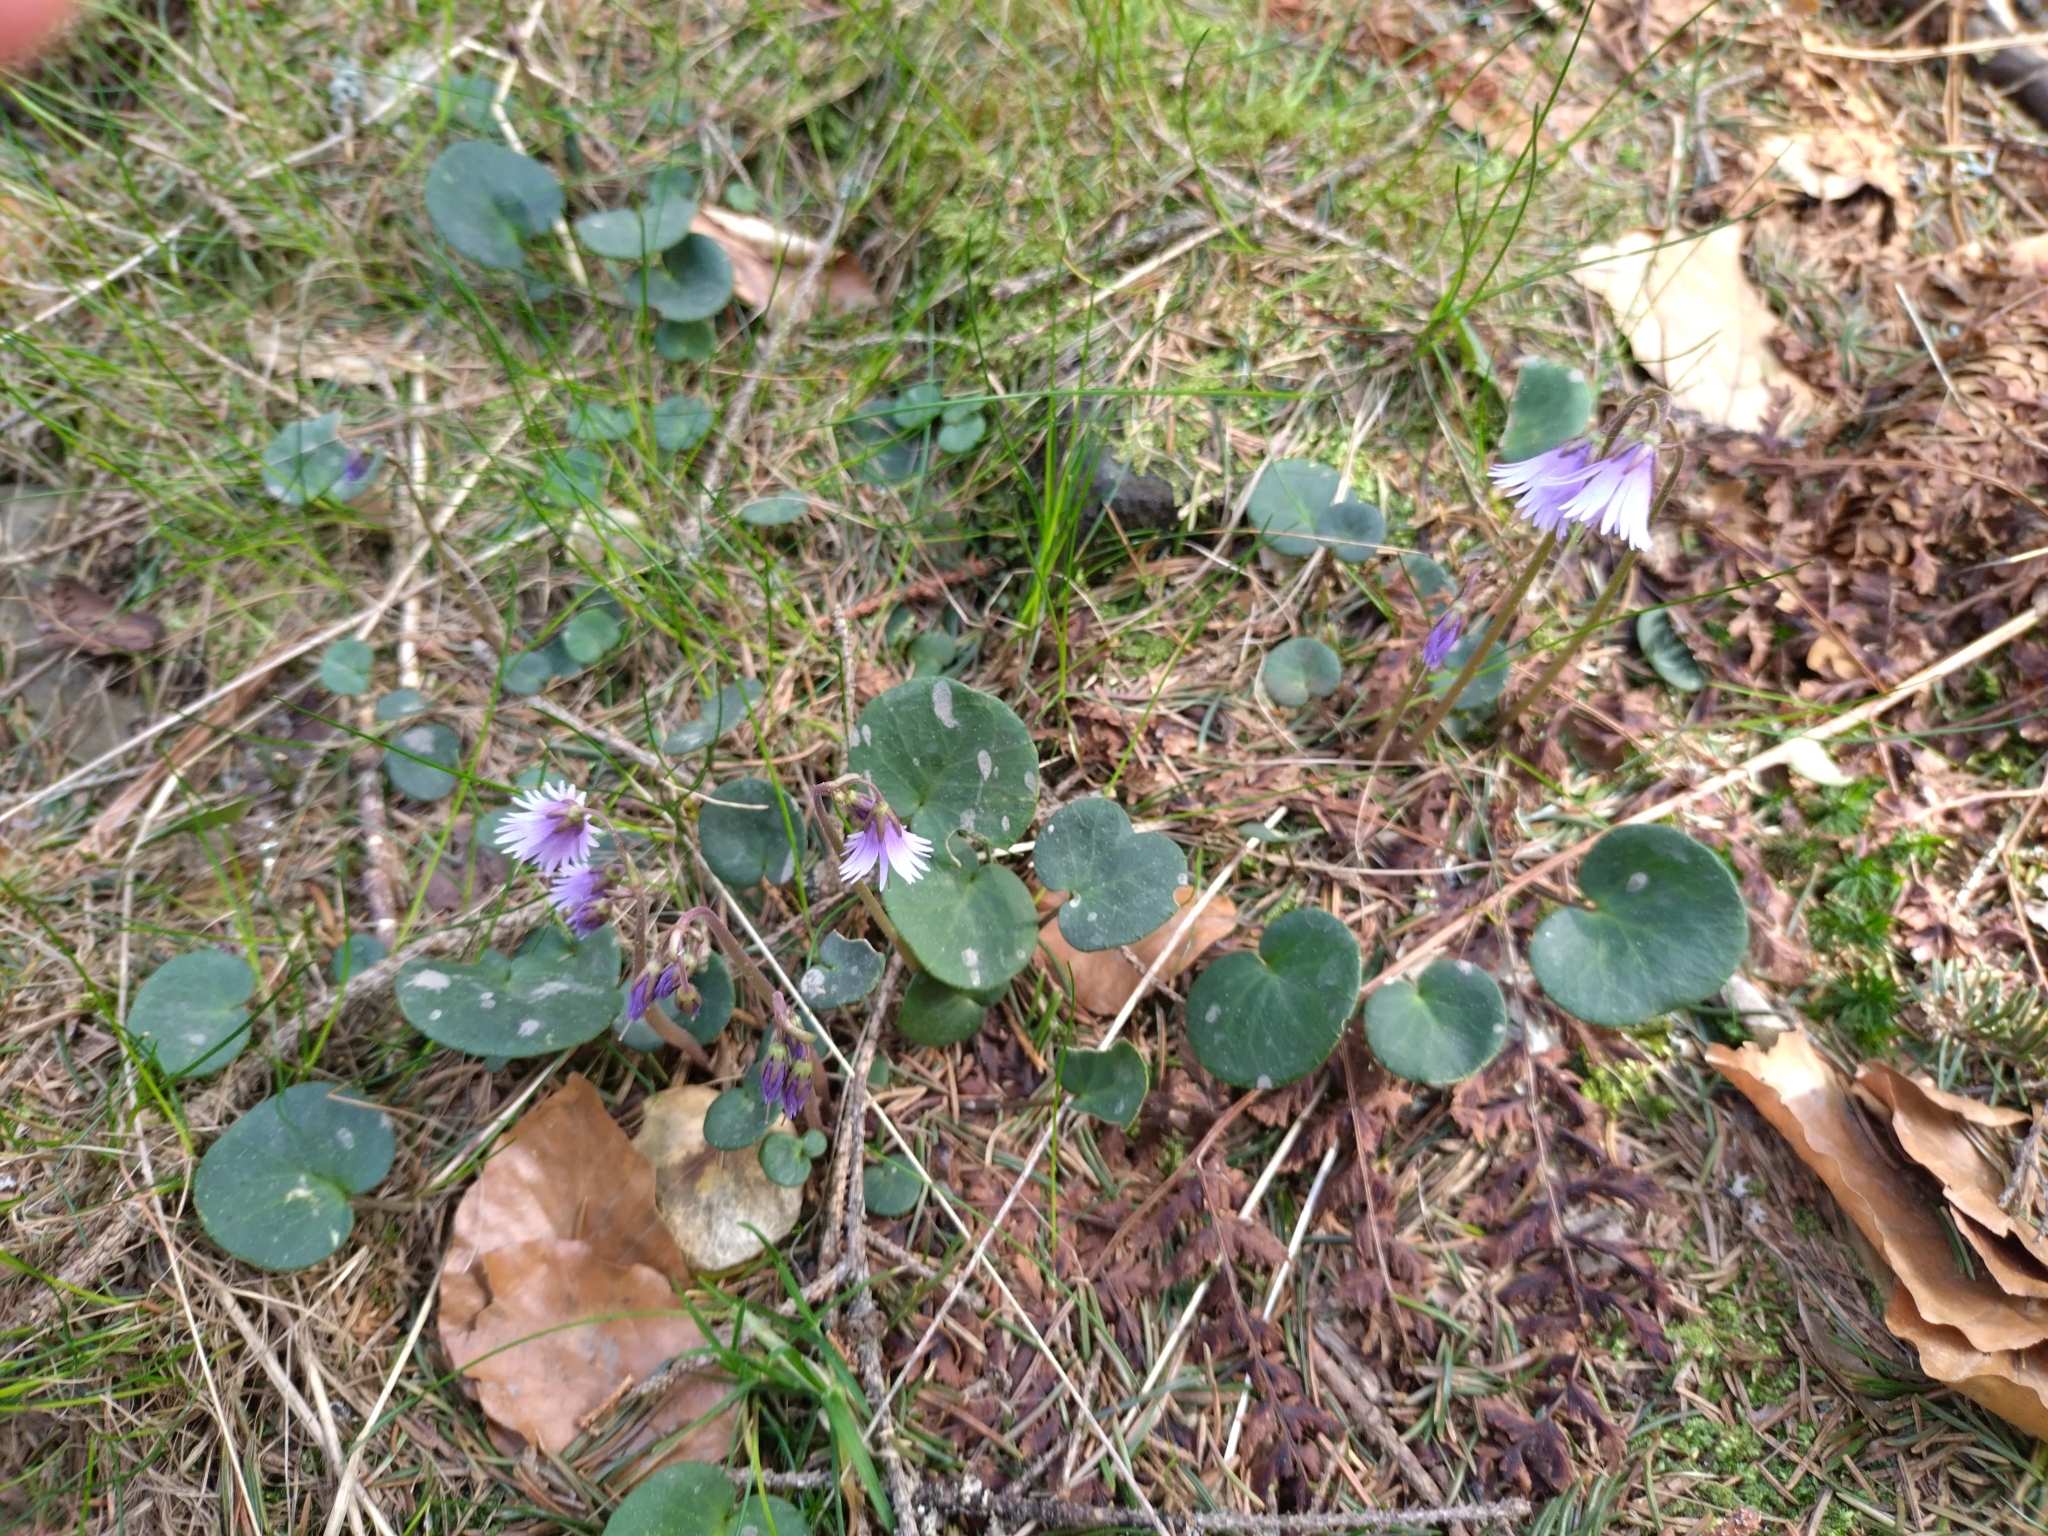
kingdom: Plantae
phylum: Tracheophyta
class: Magnoliopsida
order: Ericales
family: Primulaceae
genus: Soldanella
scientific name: Soldanella carpatica
